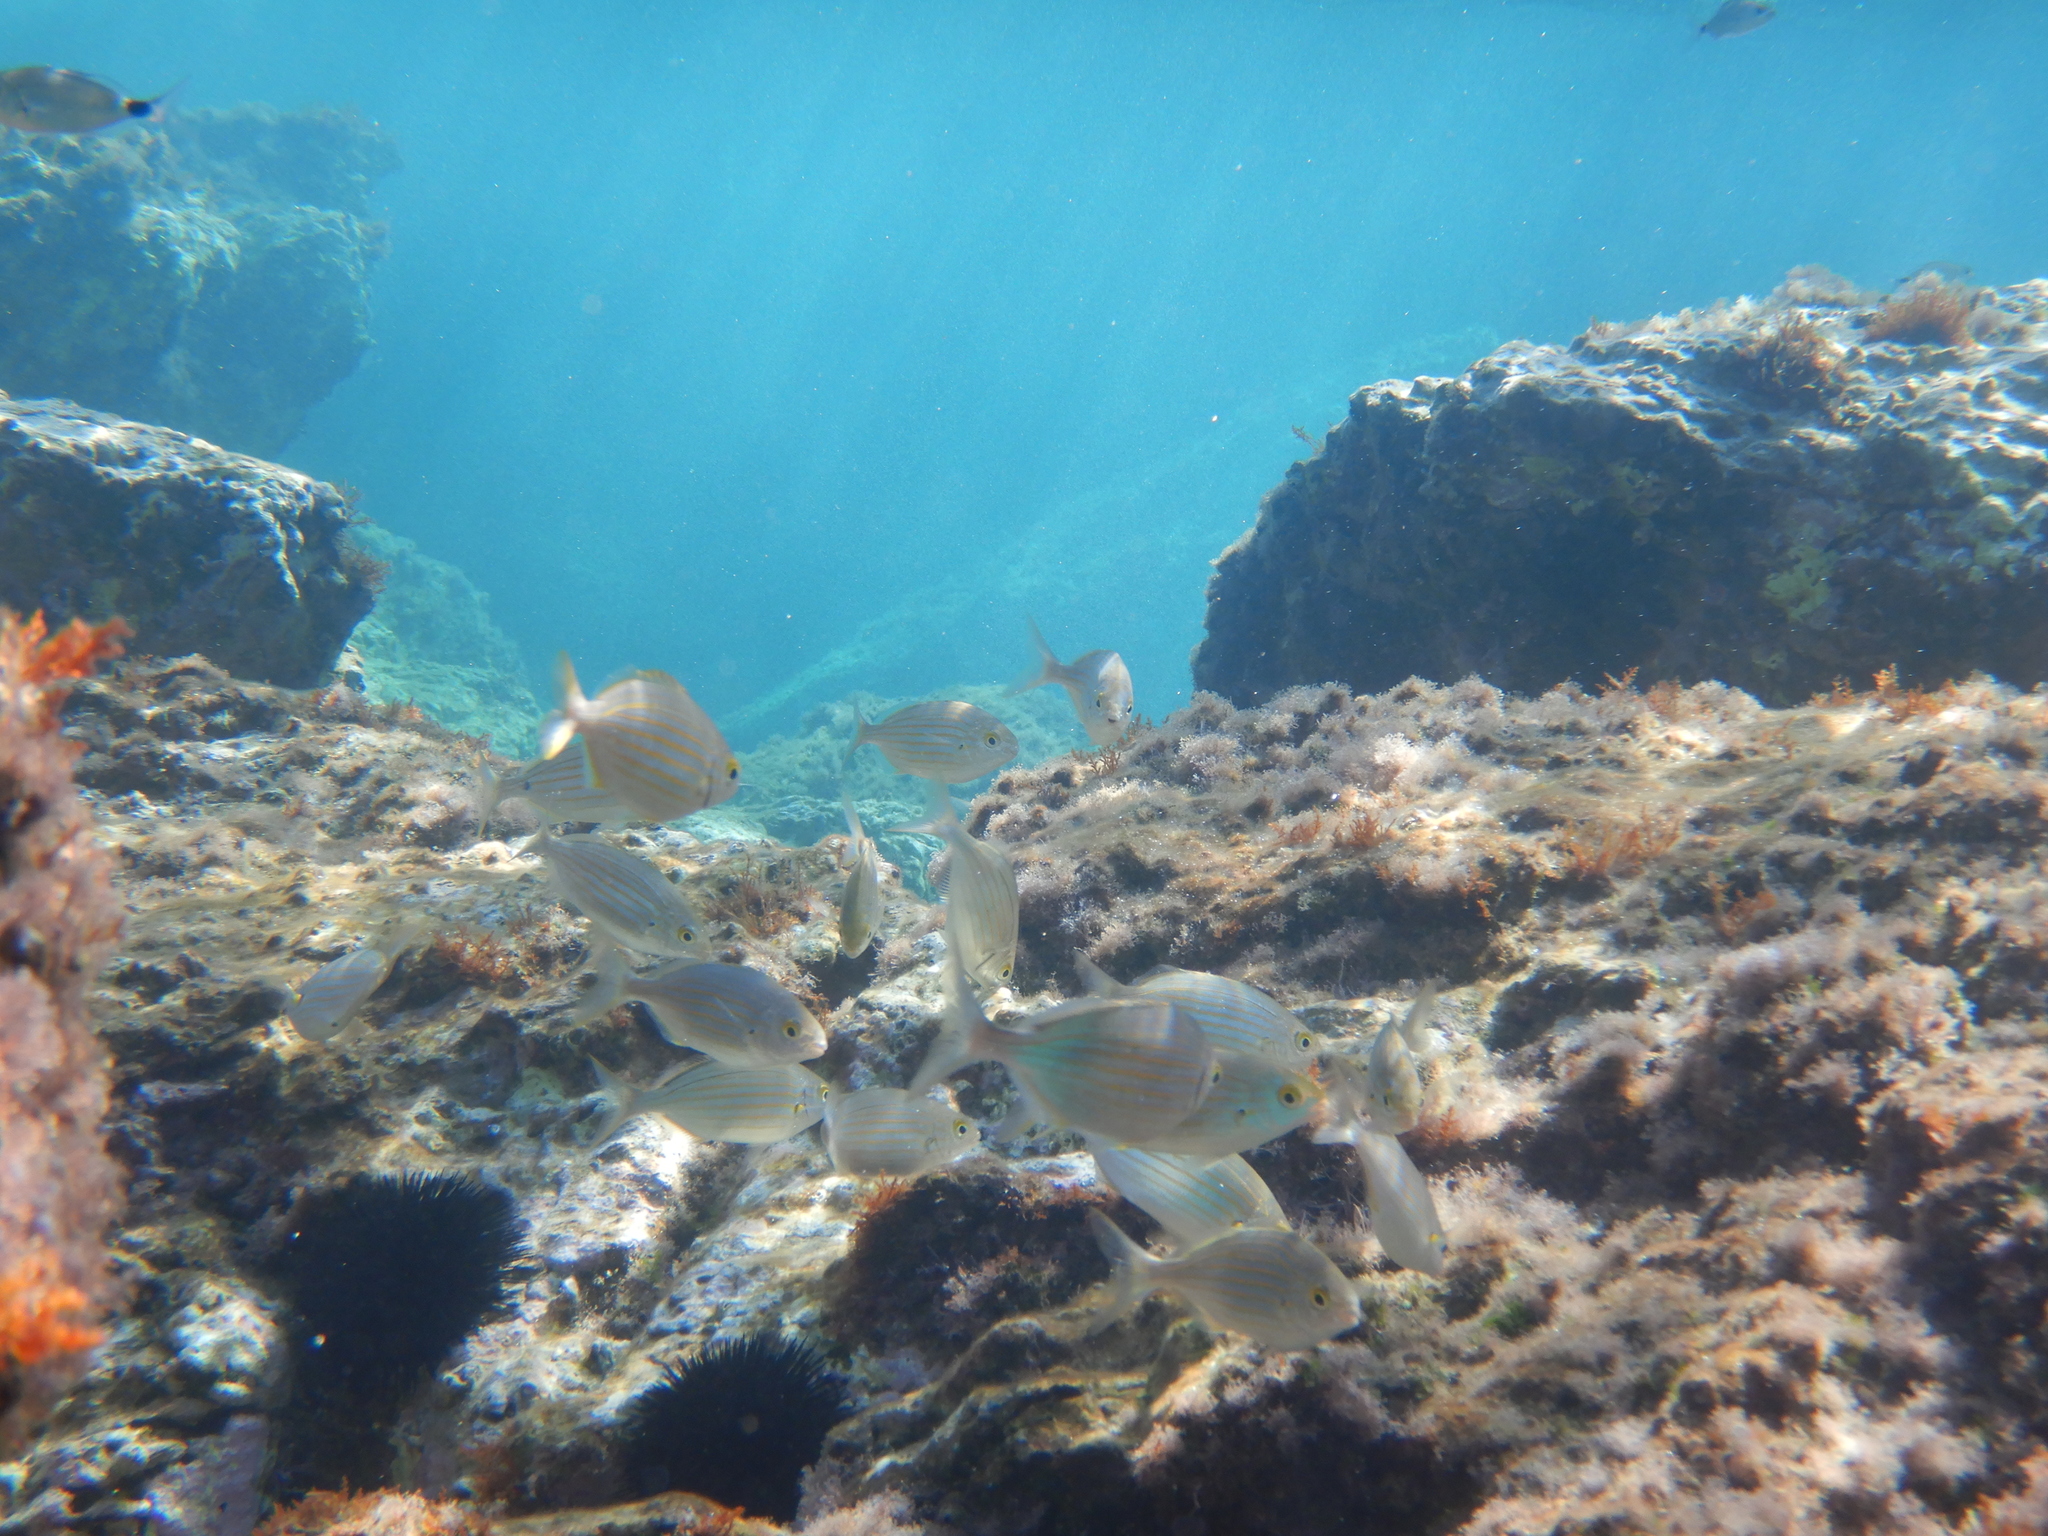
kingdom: Animalia
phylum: Chordata
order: Perciformes
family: Sparidae
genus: Sarpa
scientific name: Sarpa salpa
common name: Salema
